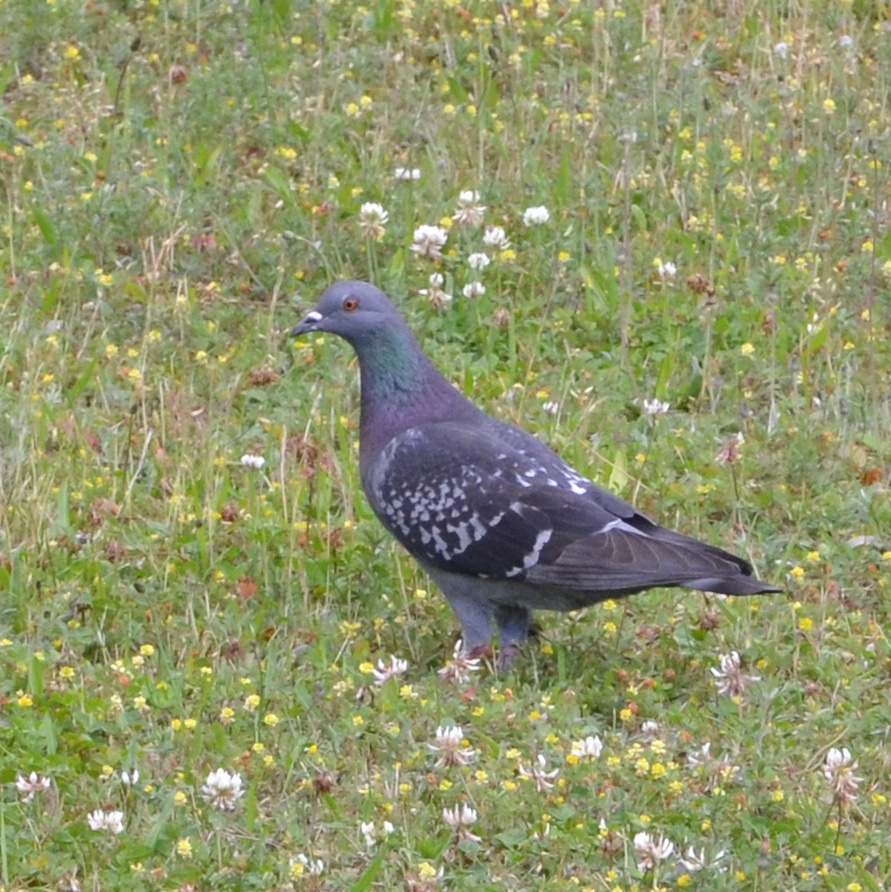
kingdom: Animalia
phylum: Chordata
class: Aves
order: Columbiformes
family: Columbidae
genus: Columba
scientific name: Columba livia
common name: Rock pigeon
